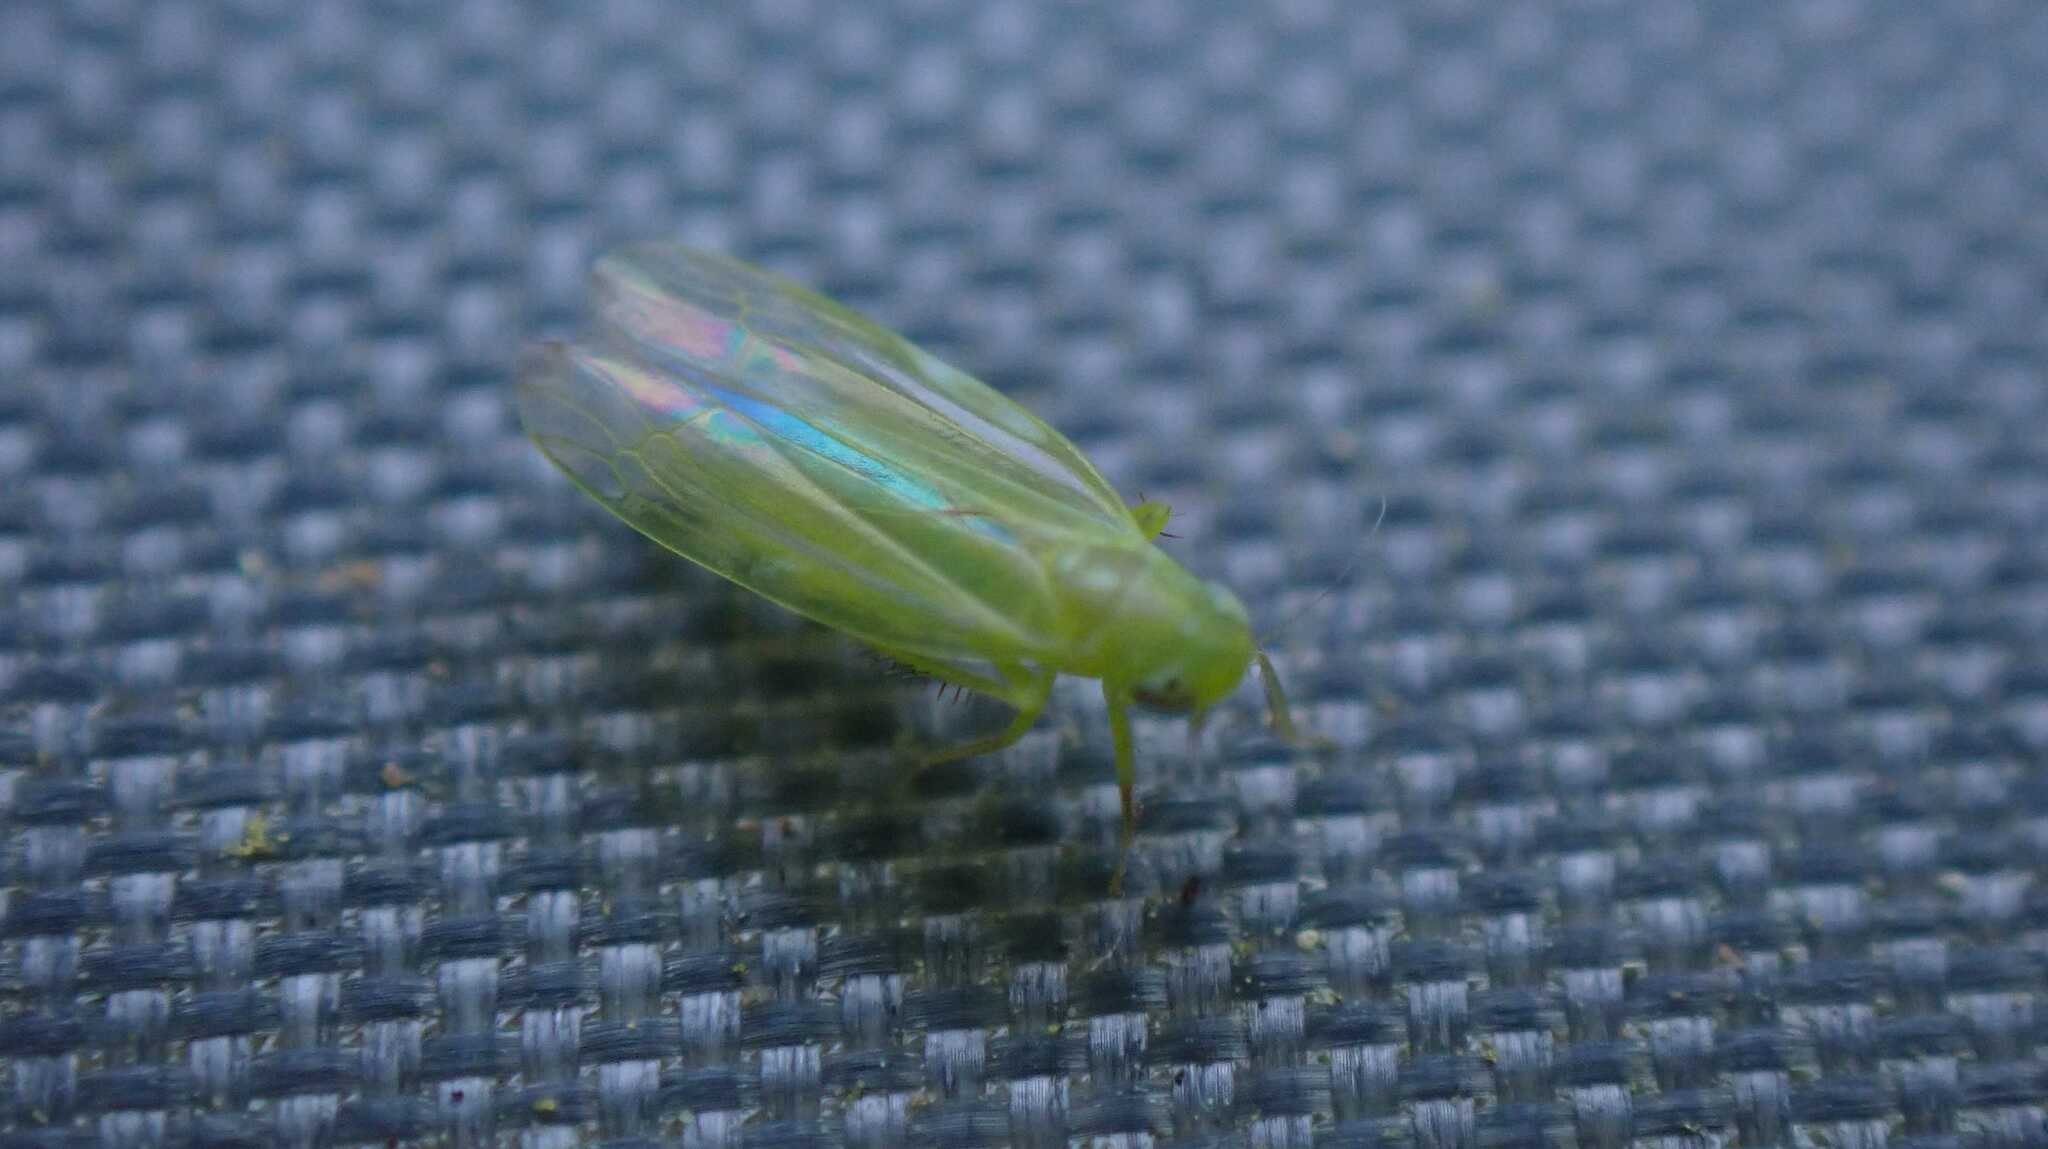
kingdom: Animalia
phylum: Arthropoda
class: Insecta
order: Hemiptera
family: Cicadellidae
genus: Hebata
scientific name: Hebata vitis
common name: The smaller green leafhopper
